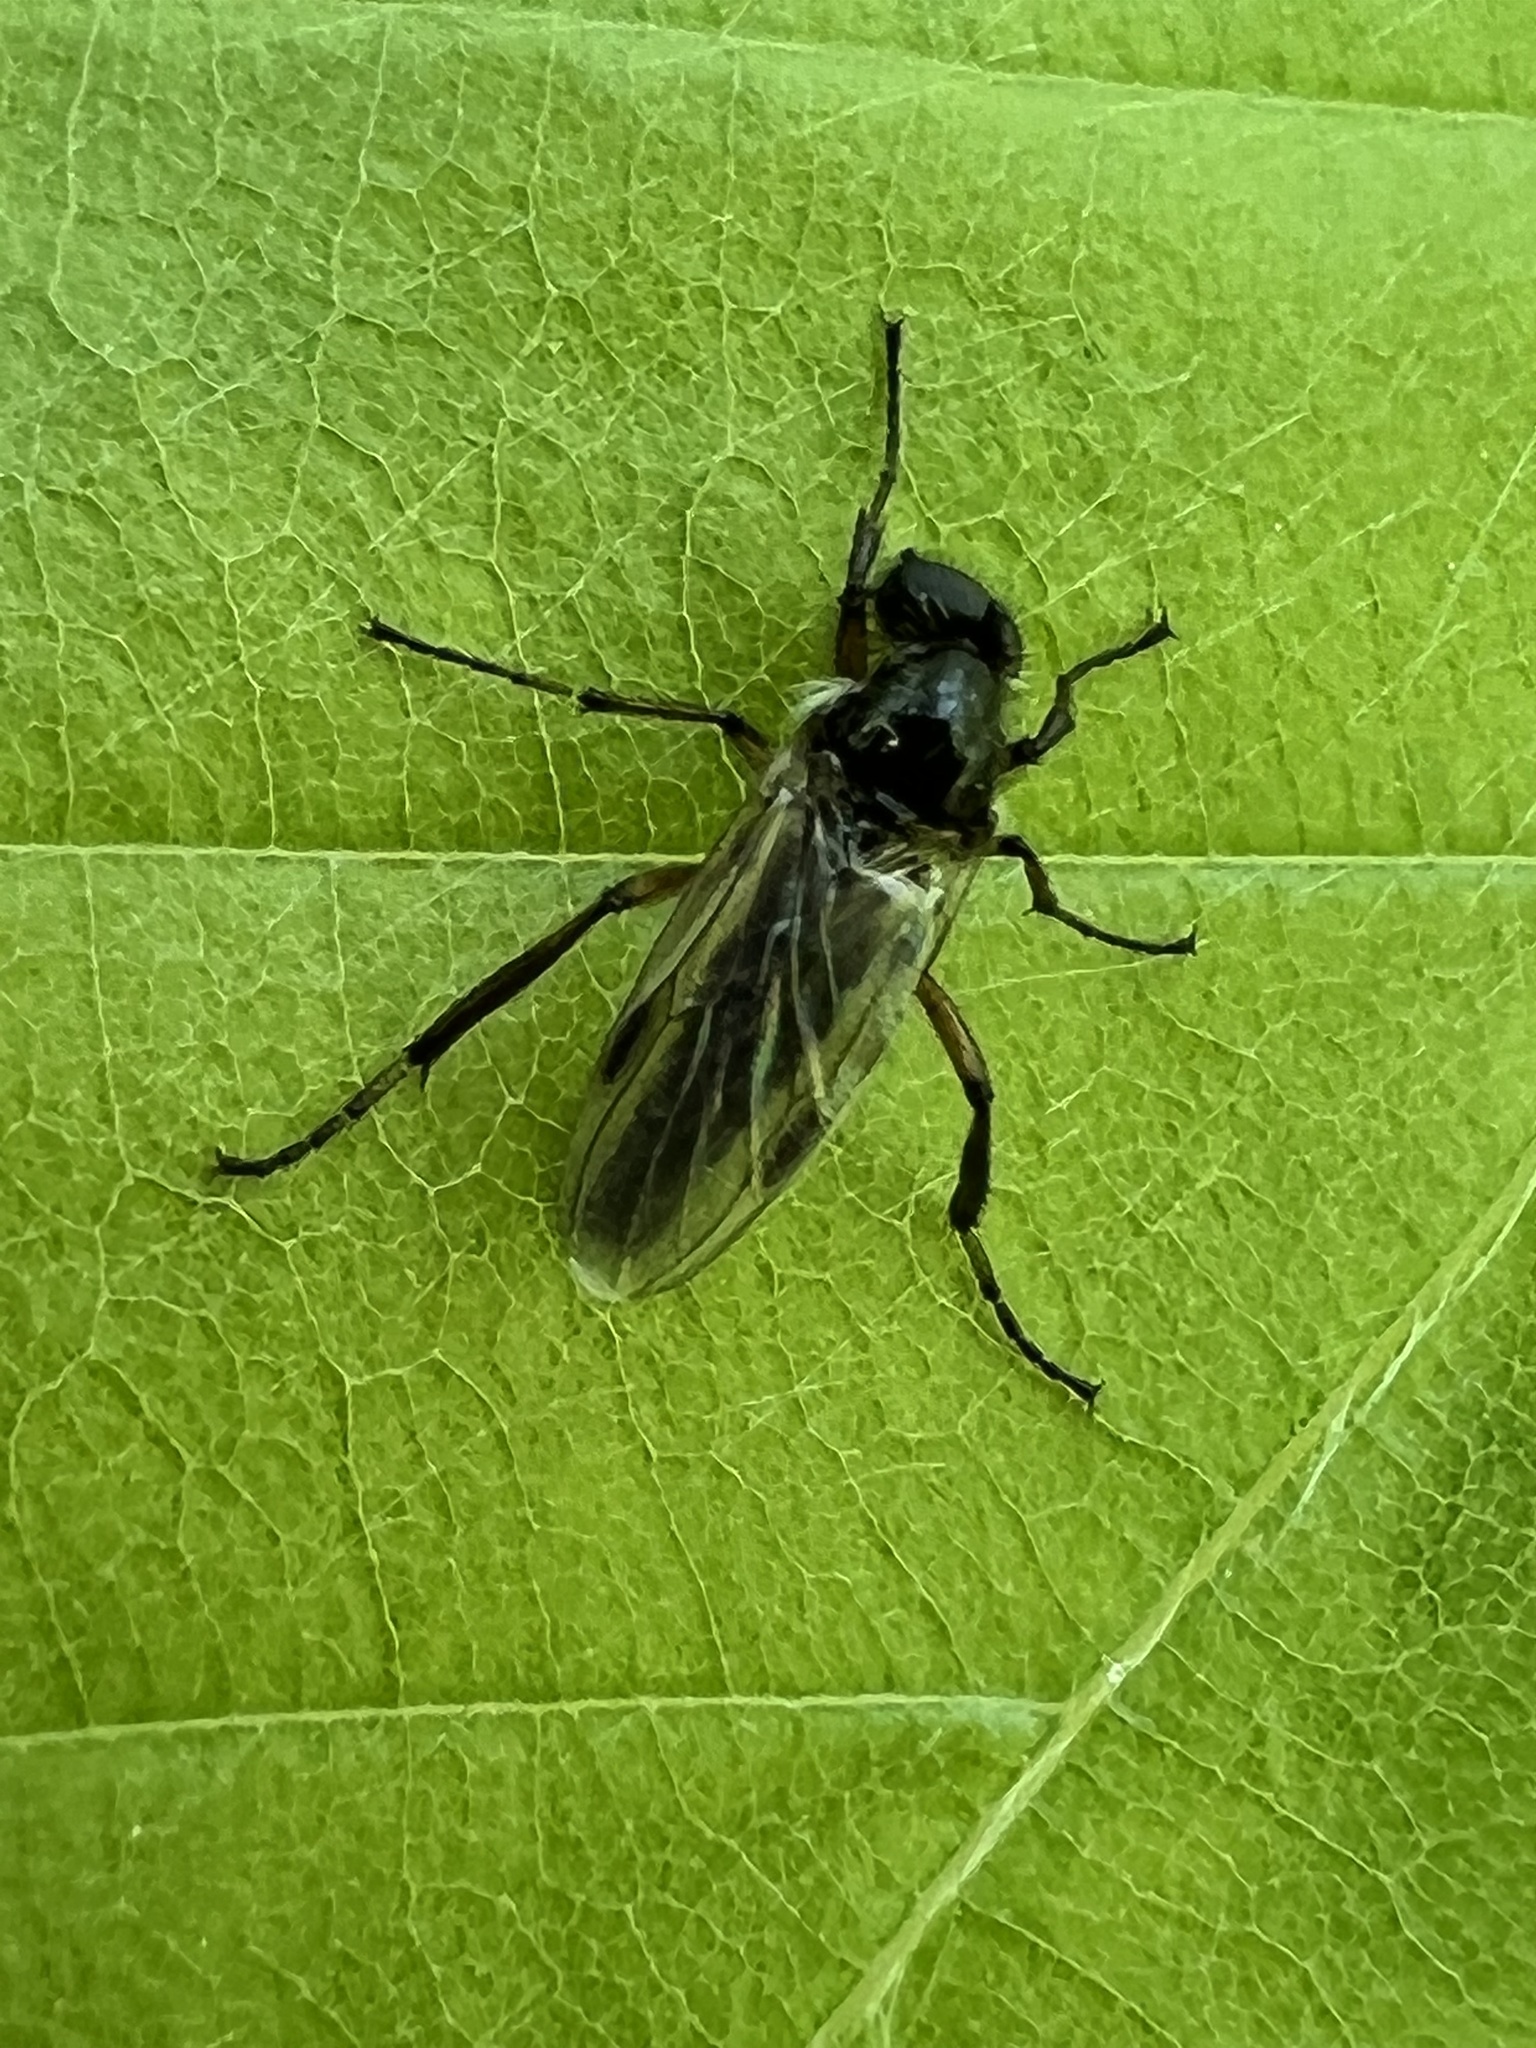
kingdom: Animalia
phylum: Arthropoda
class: Insecta
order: Diptera
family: Bibionidae
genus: Bibio
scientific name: Bibio articulatus
